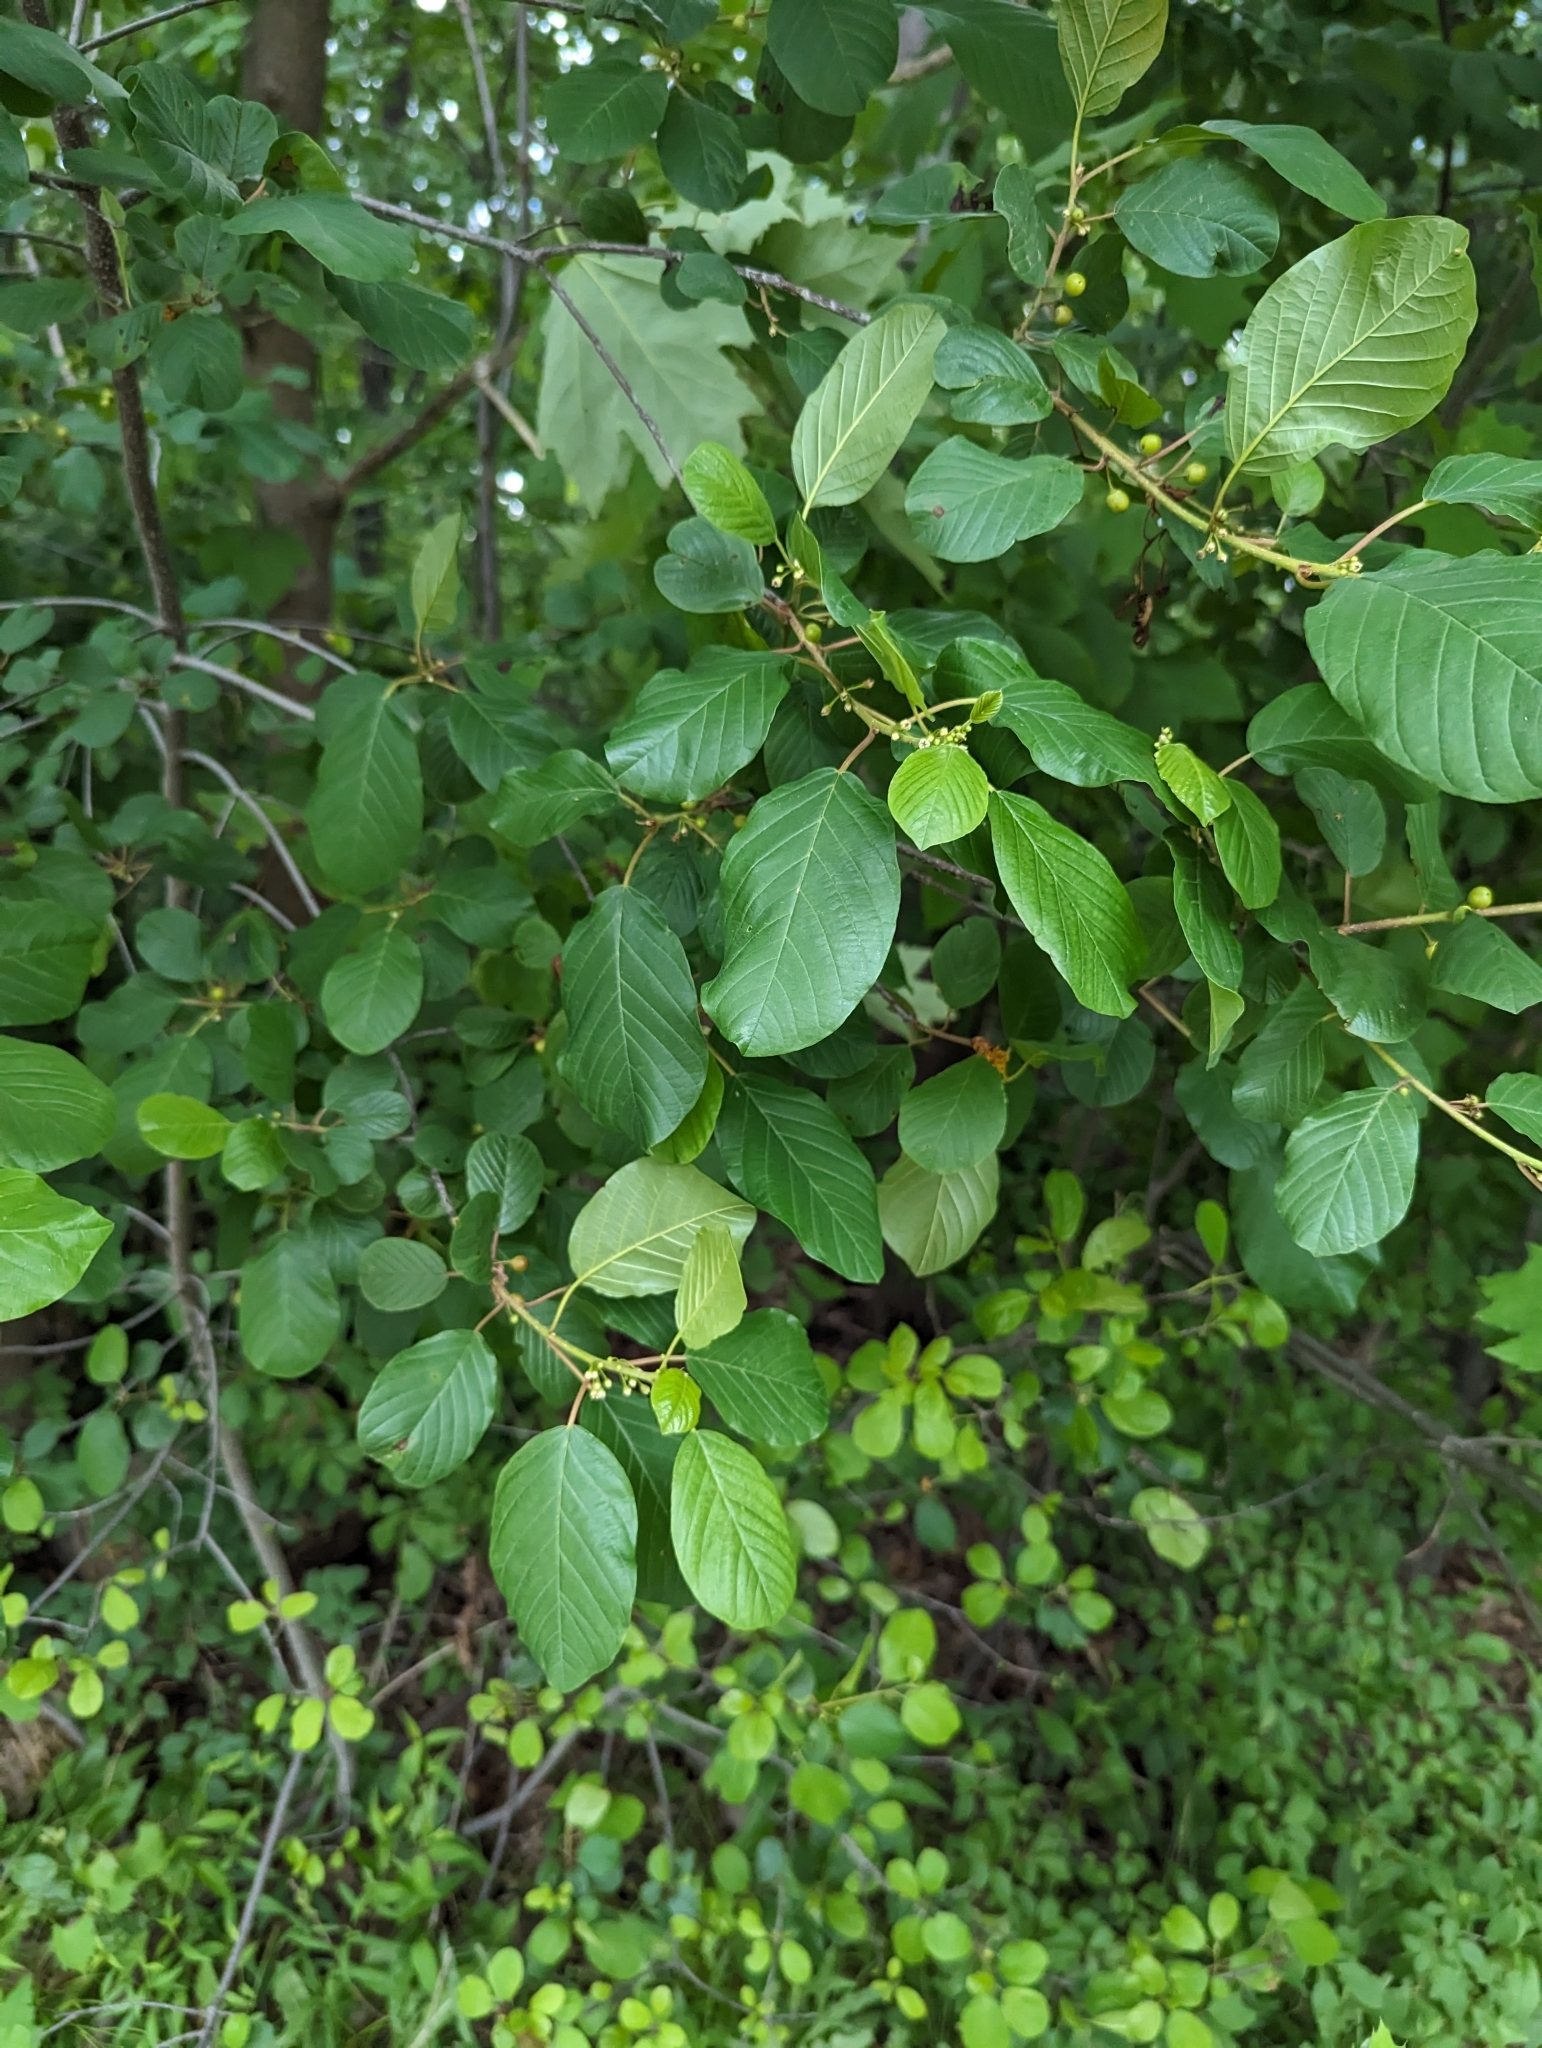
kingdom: Plantae
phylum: Tracheophyta
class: Magnoliopsida
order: Rosales
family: Rhamnaceae
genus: Frangula
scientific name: Frangula alnus
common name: Alder buckthorn
